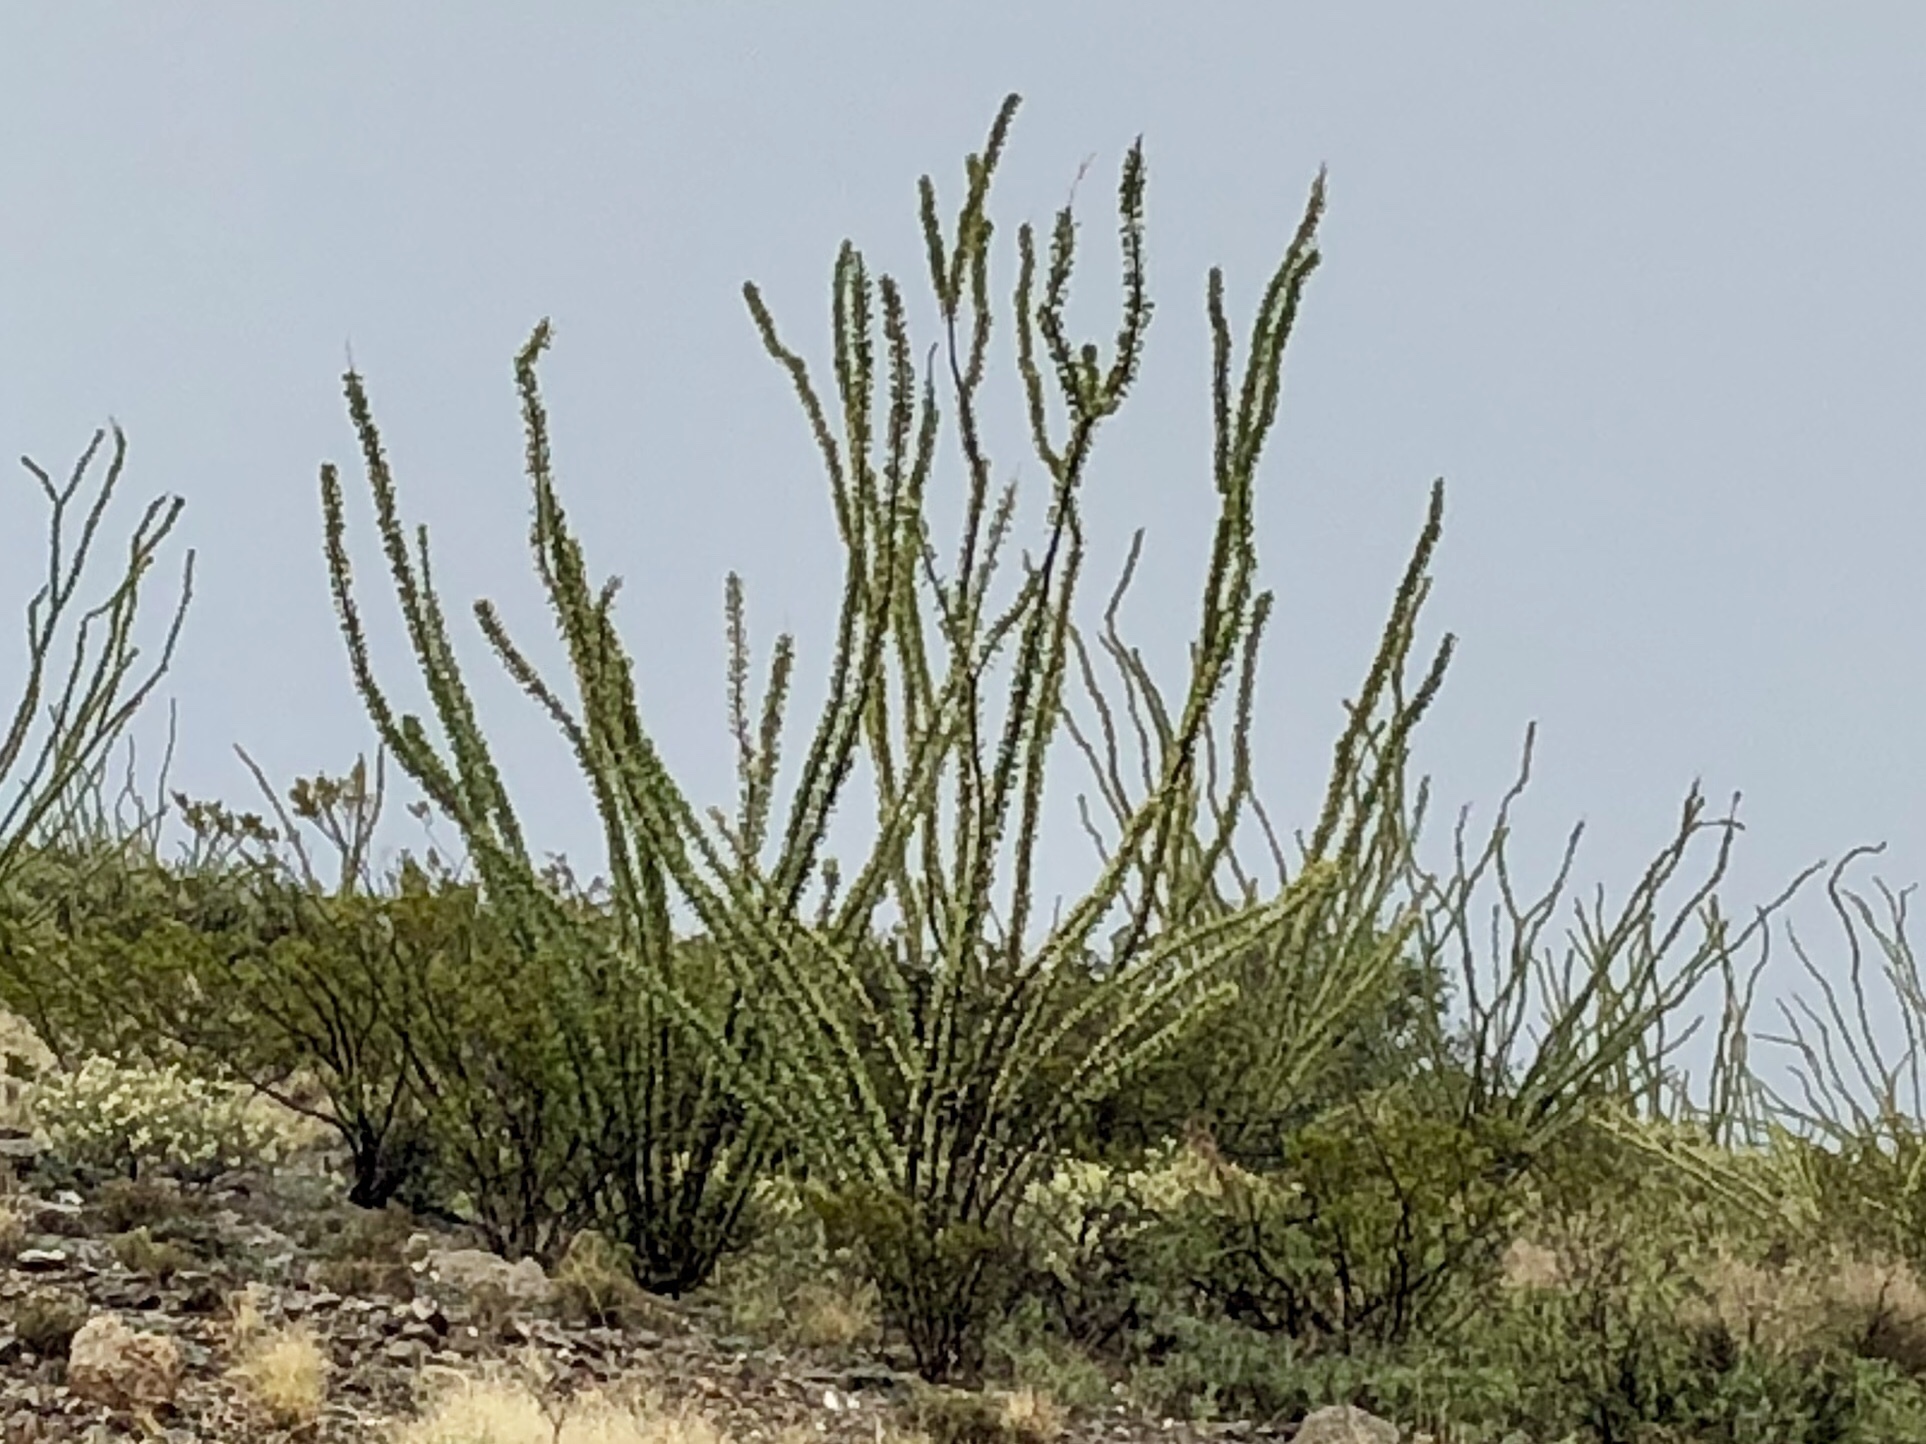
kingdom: Plantae
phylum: Tracheophyta
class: Magnoliopsida
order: Ericales
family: Fouquieriaceae
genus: Fouquieria
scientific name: Fouquieria splendens
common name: Vine-cactus
